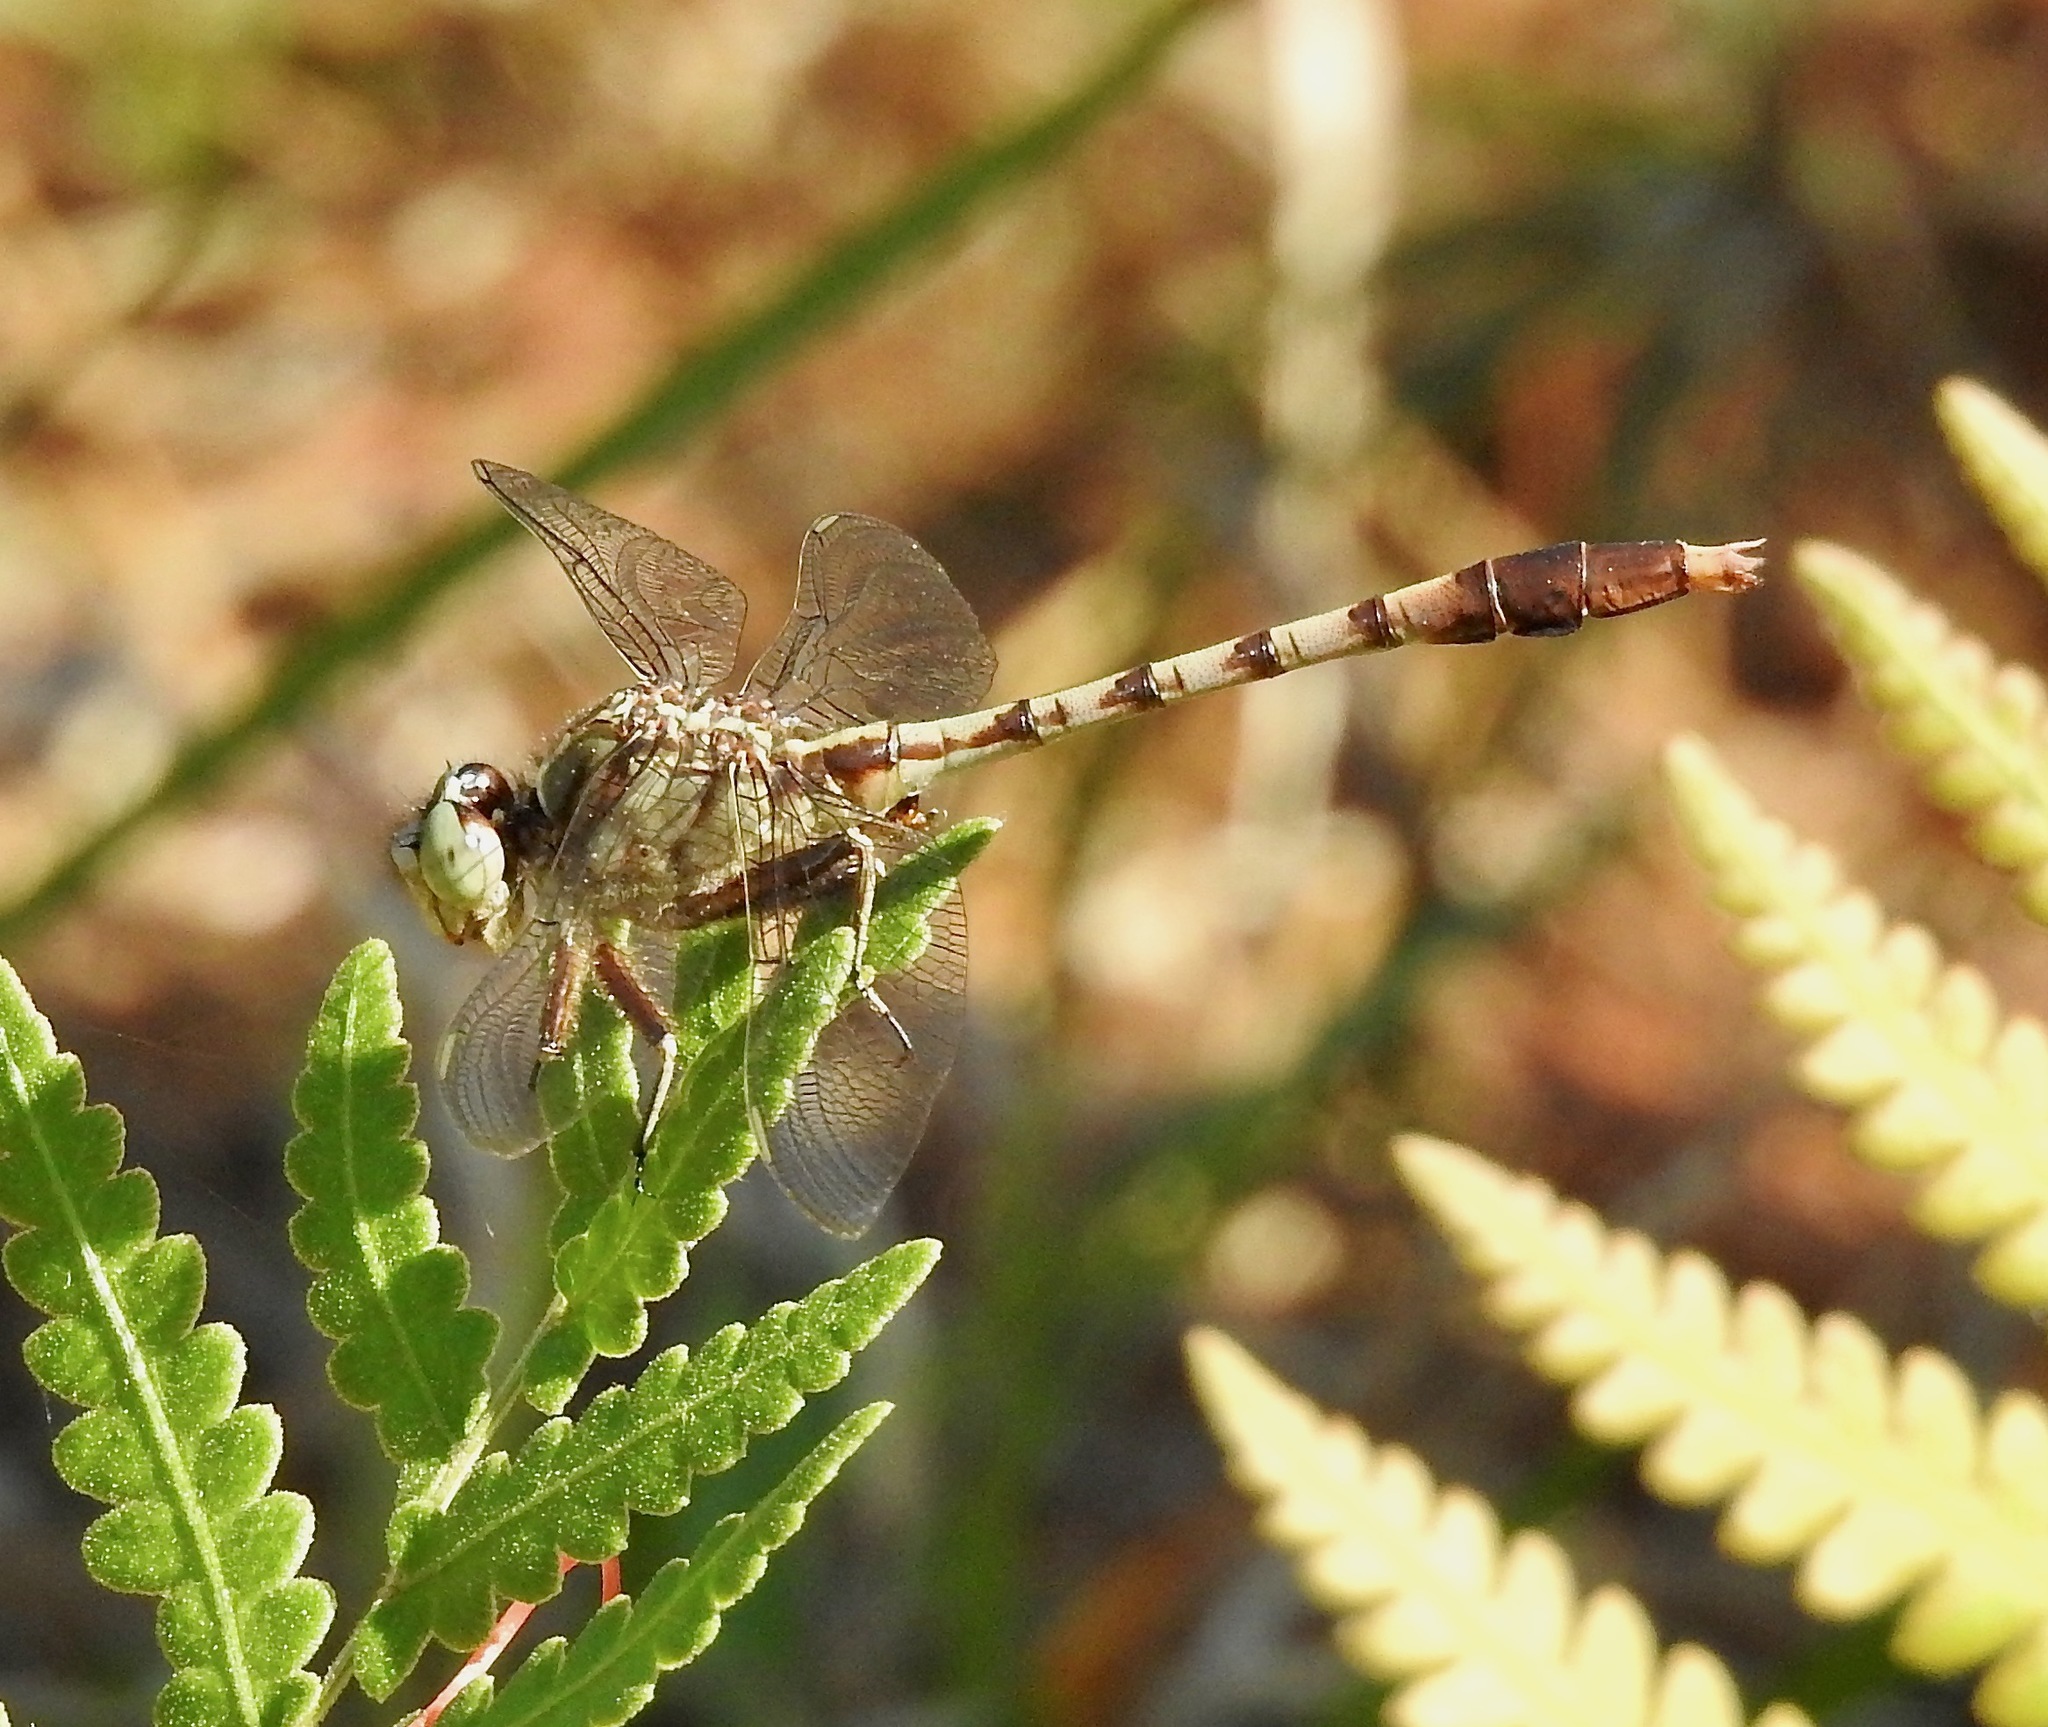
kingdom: Animalia
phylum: Arthropoda
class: Insecta
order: Odonata
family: Gomphidae
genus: Arigomphus
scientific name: Arigomphus pallidus
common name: Gray-green clubtail
